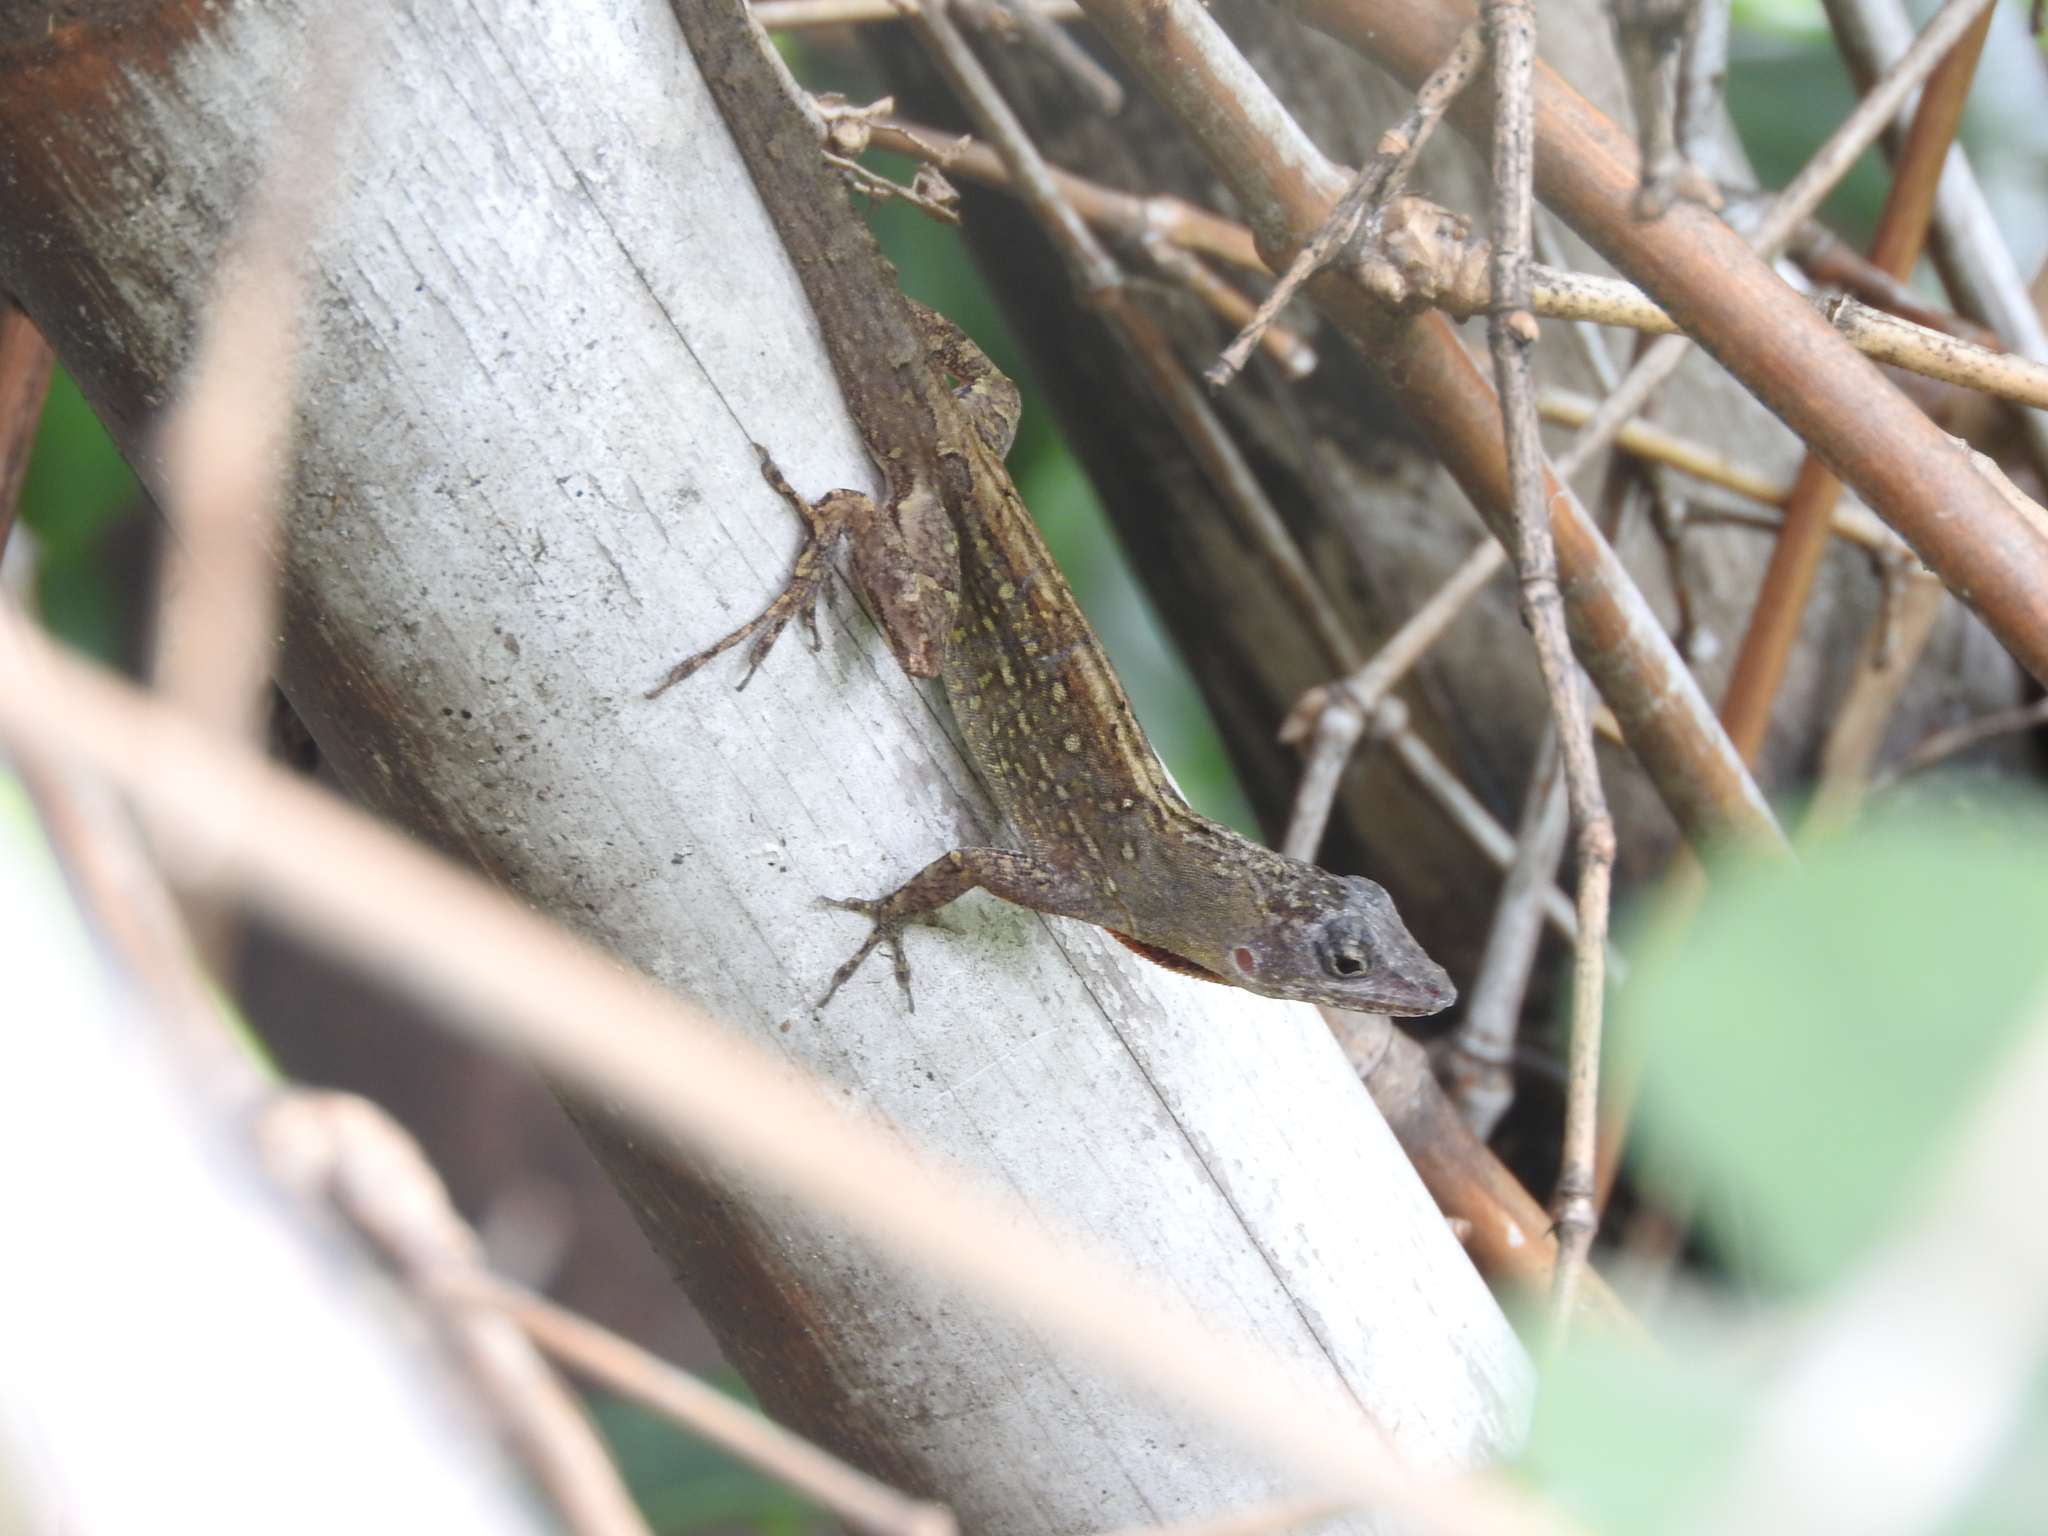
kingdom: Animalia
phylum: Chordata
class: Squamata
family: Dactyloidae
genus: Anolis
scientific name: Anolis sagrei
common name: Brown anole
